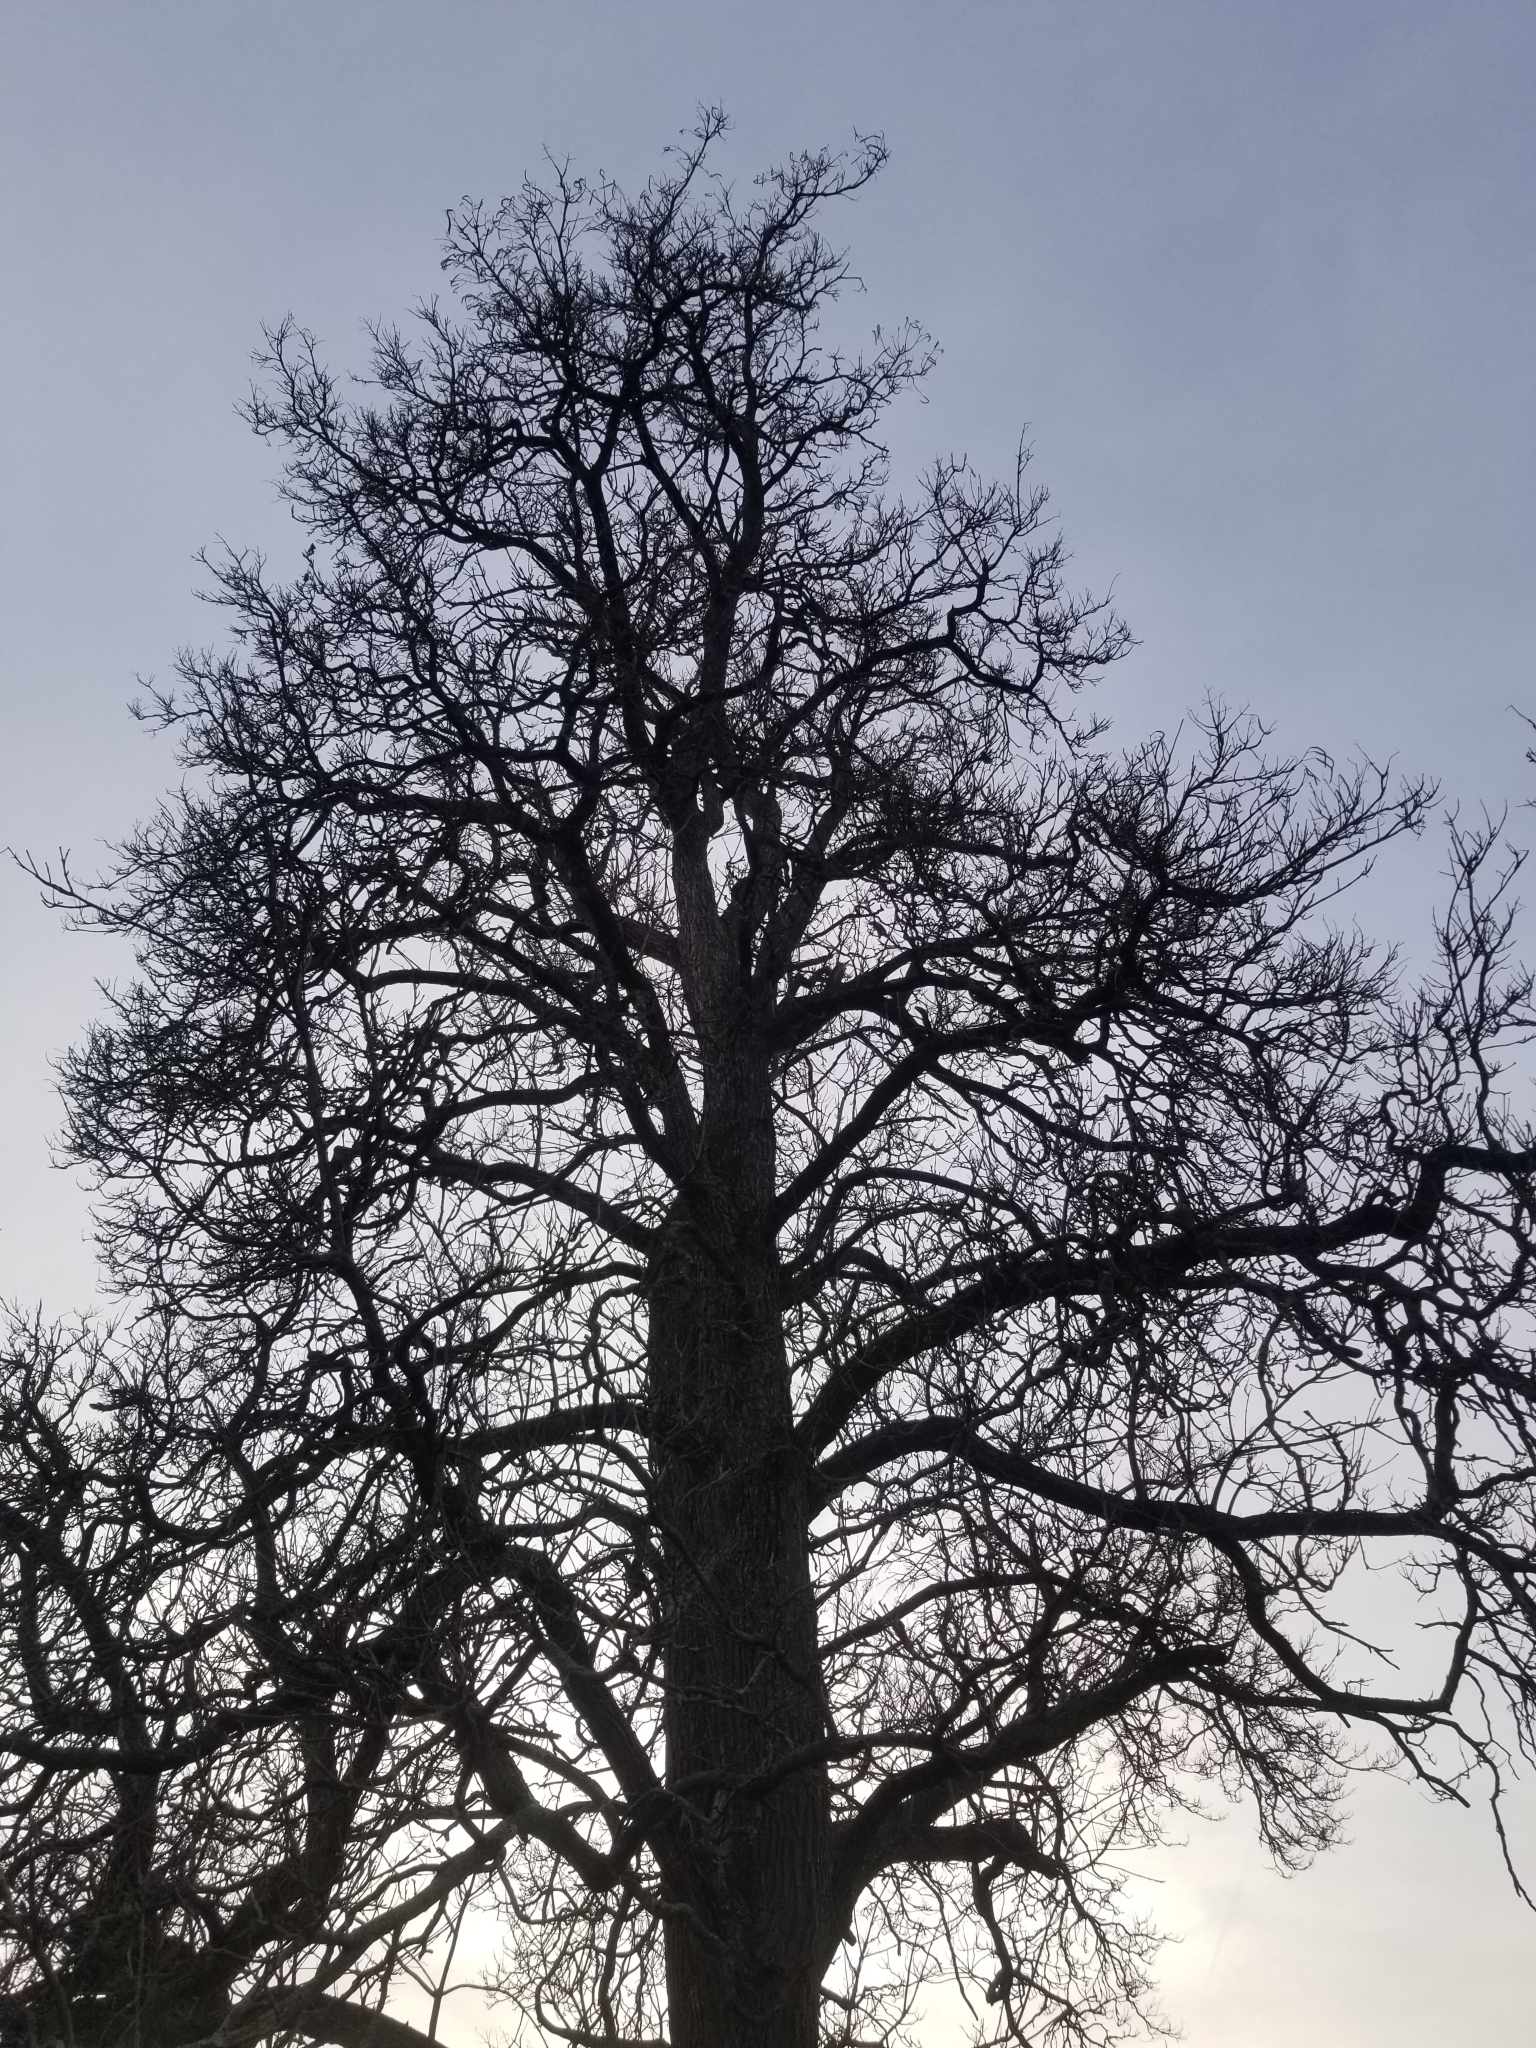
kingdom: Plantae
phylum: Tracheophyta
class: Magnoliopsida
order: Lamiales
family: Bignoniaceae
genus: Catalpa
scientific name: Catalpa
